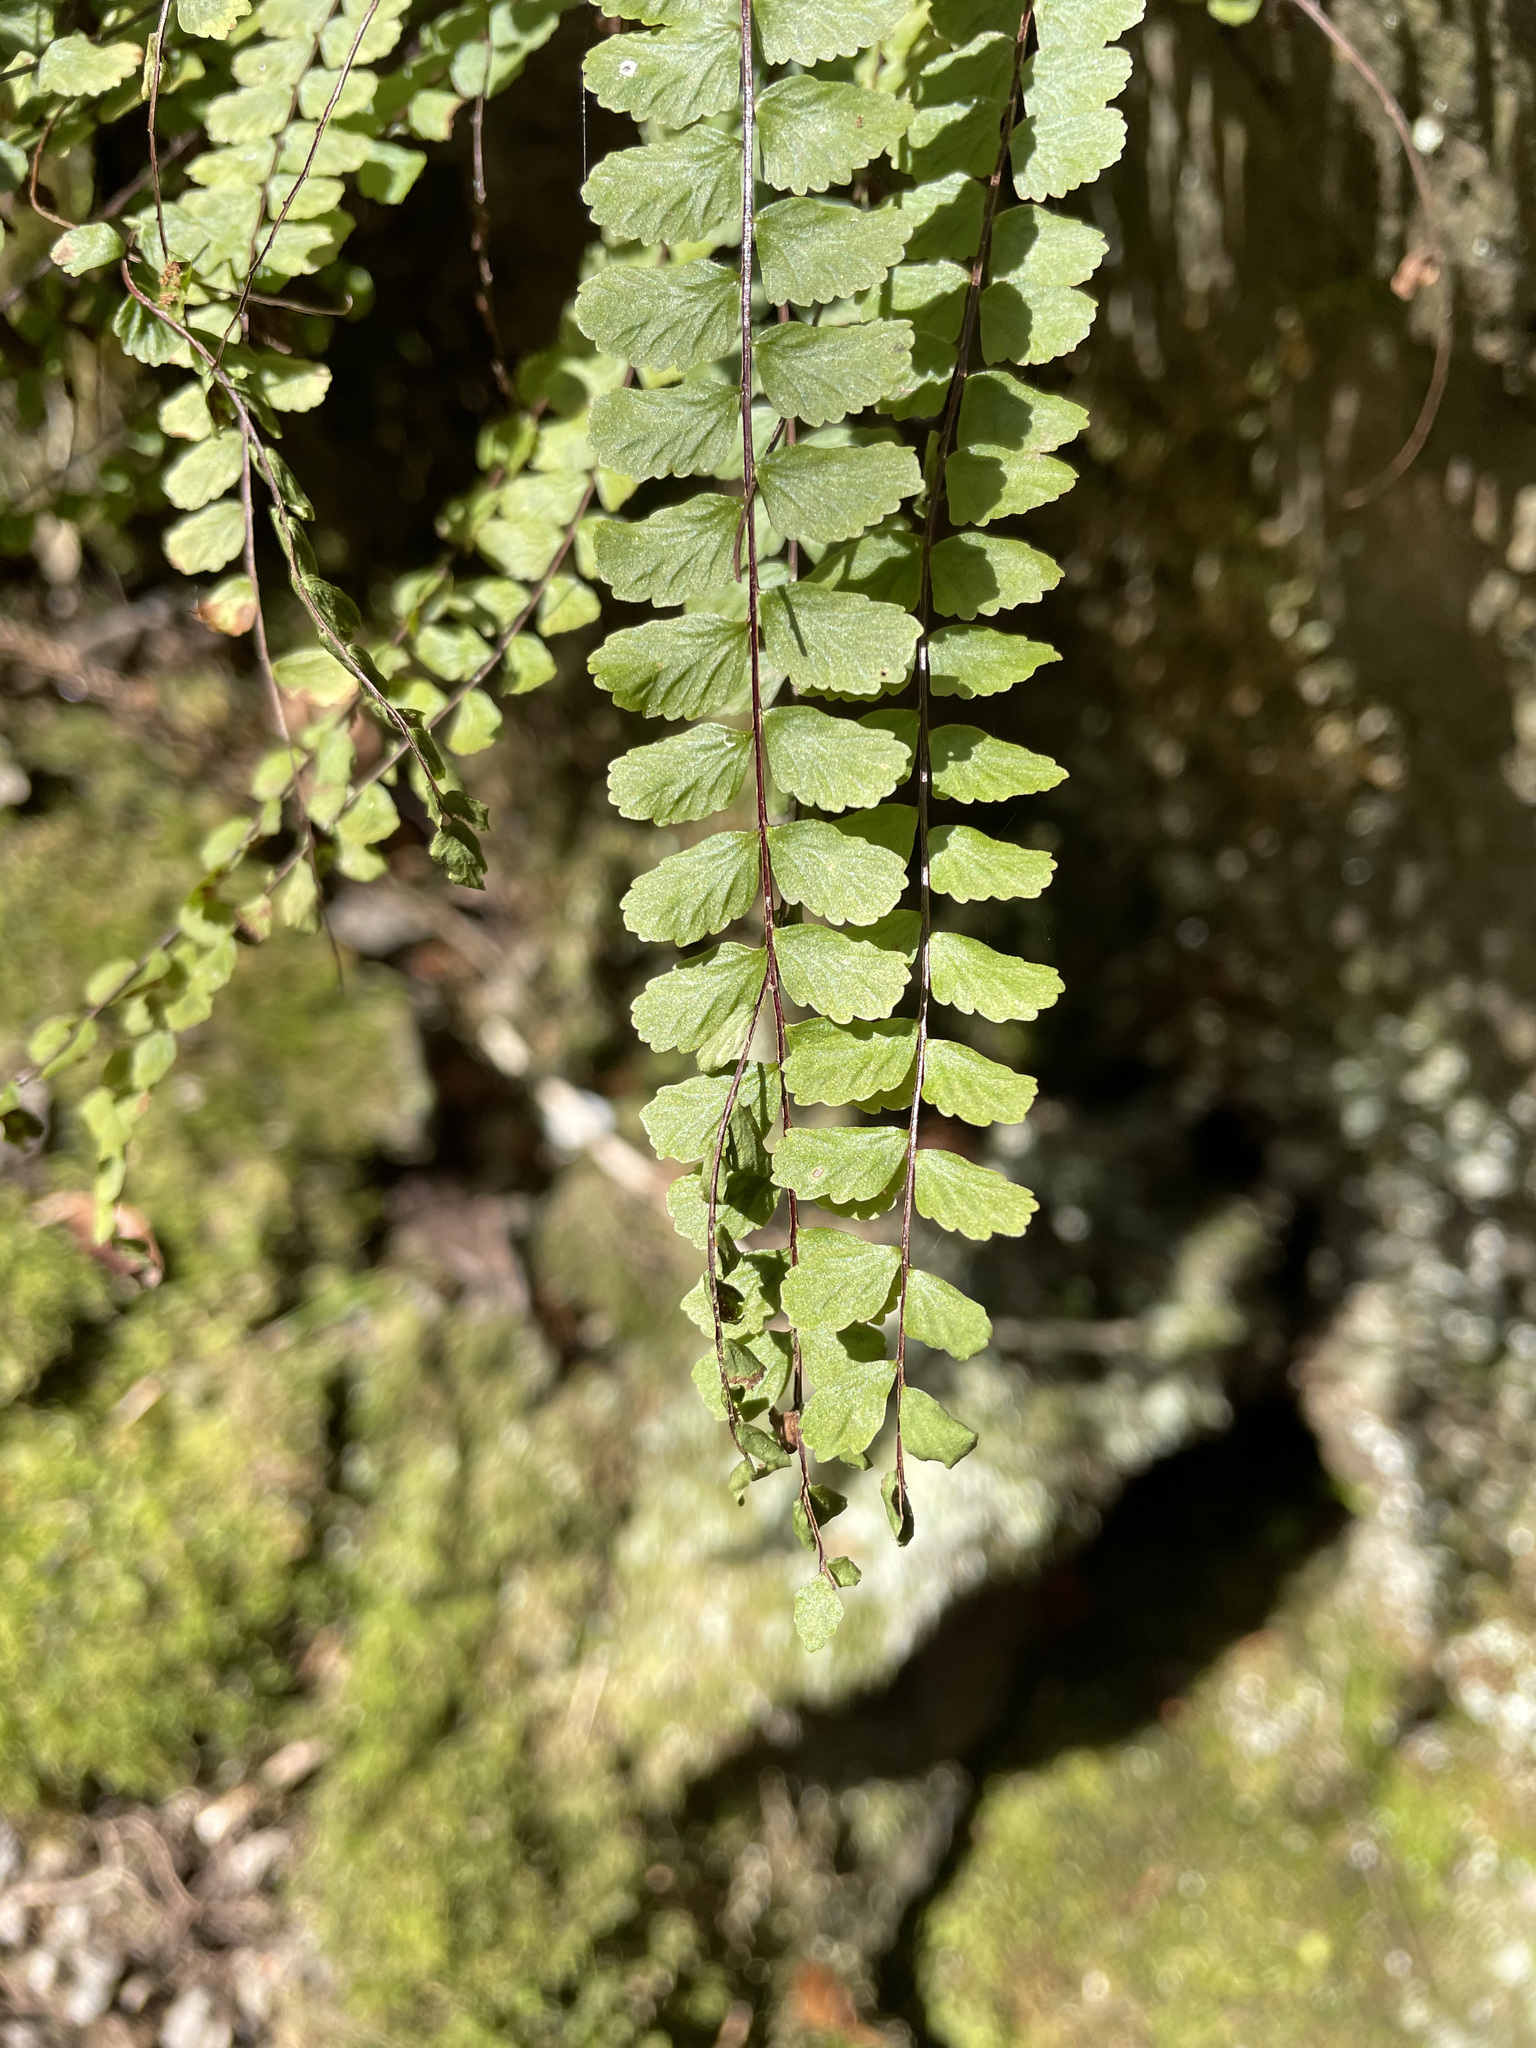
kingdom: Plantae
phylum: Tracheophyta
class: Polypodiopsida
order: Polypodiales
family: Aspleniaceae
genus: Asplenium
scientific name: Asplenium trichomanes
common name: Maidenhair spleenwort
